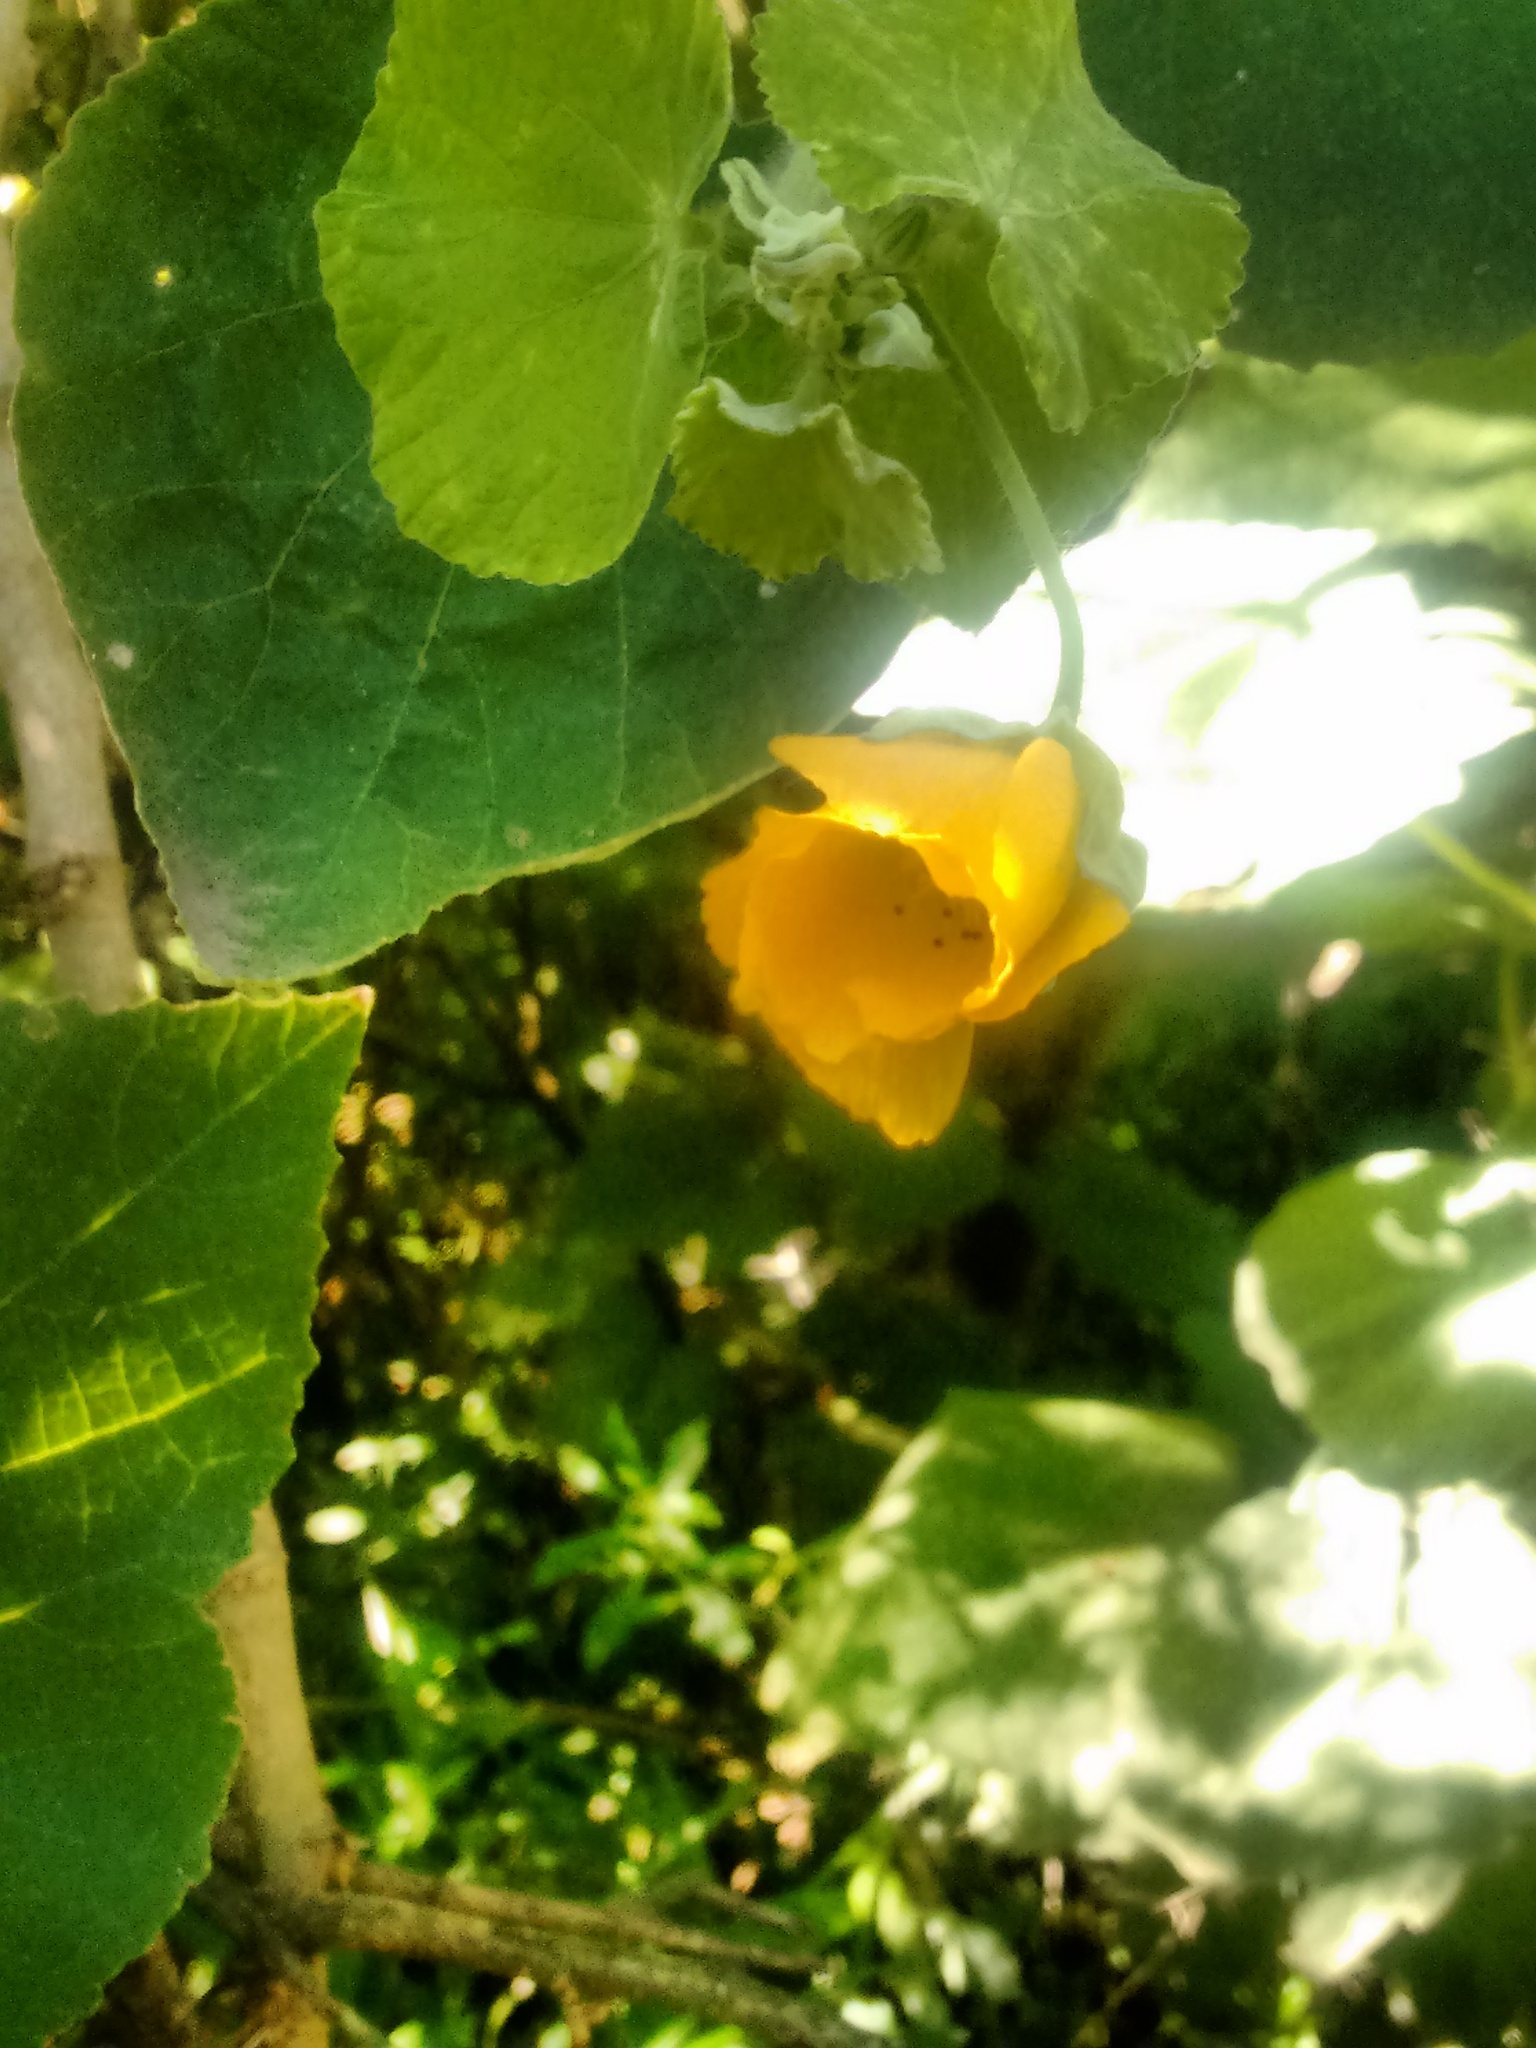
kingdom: Plantae
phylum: Tracheophyta
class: Magnoliopsida
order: Malvales
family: Malvaceae
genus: Abutilon
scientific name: Abutilon grandifolium
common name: Hairy abutilon
